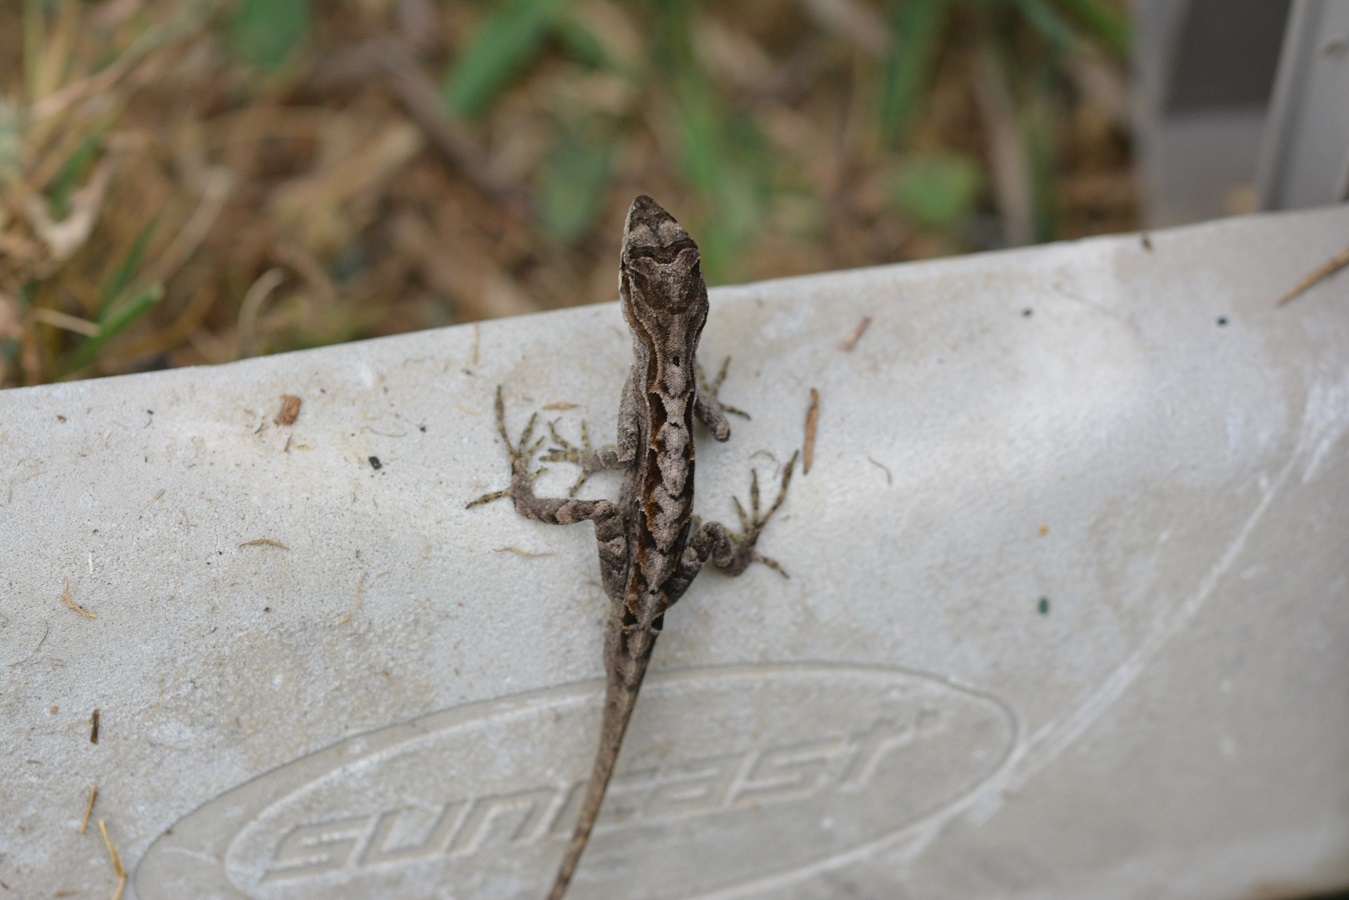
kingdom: Animalia
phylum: Chordata
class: Squamata
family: Dactyloidae
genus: Anolis
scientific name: Anolis anisolepis
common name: Chiapas ornate anole
